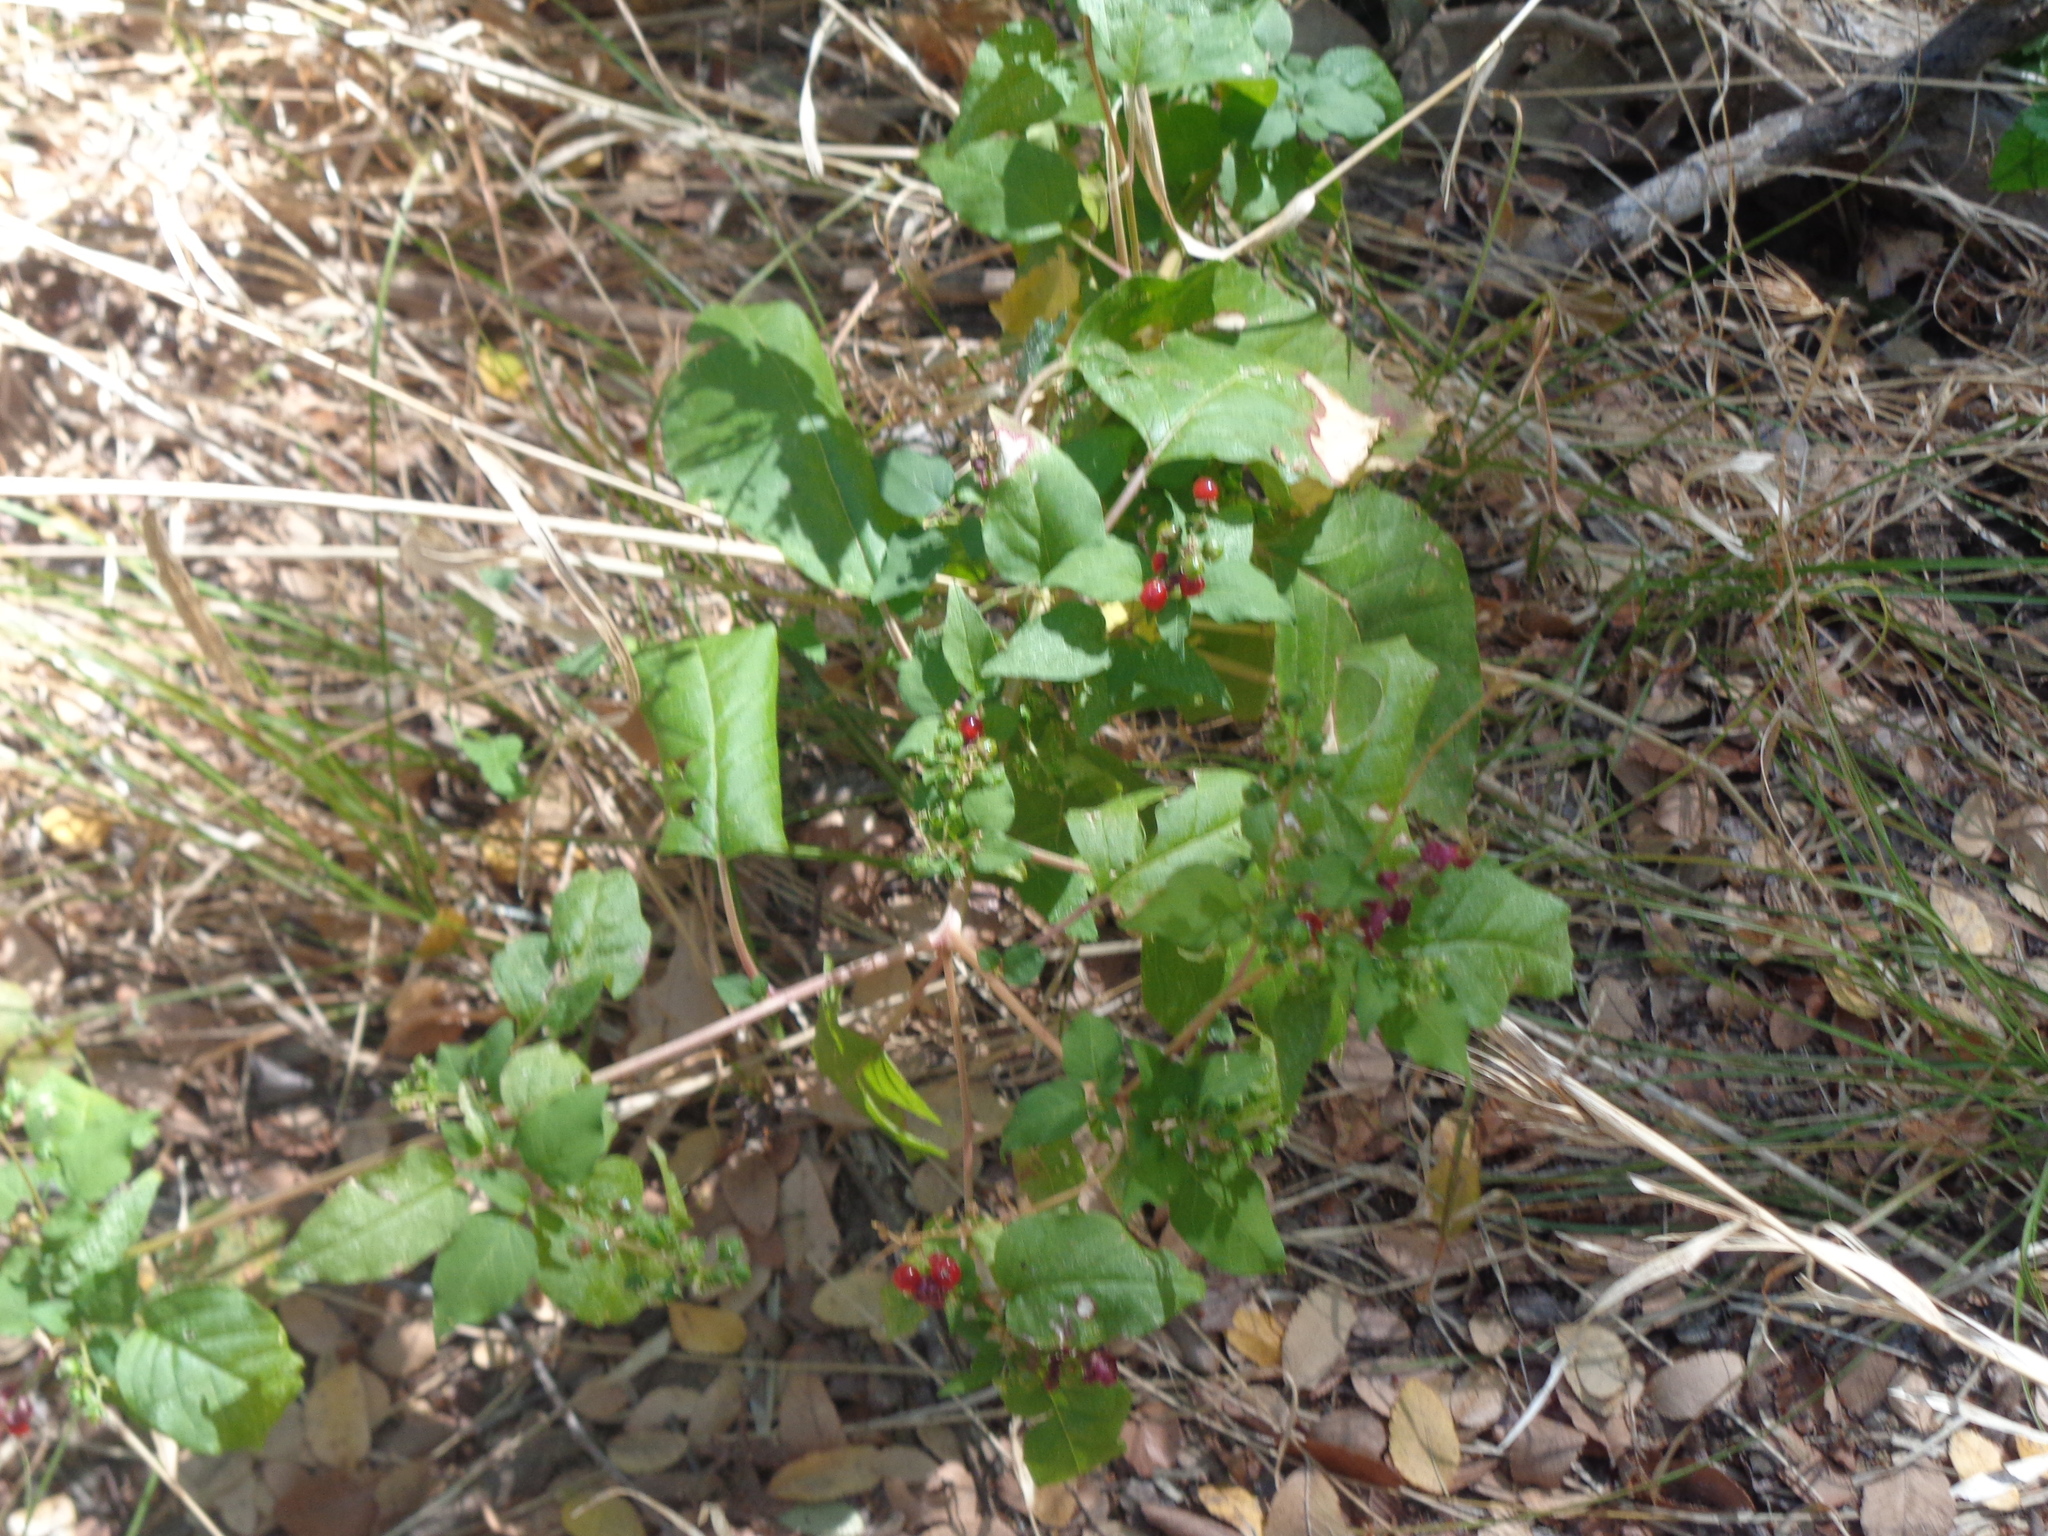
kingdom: Plantae
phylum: Tracheophyta
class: Magnoliopsida
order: Caryophyllales
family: Phytolaccaceae
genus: Rivina
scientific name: Rivina humilis
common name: Rougeplant
